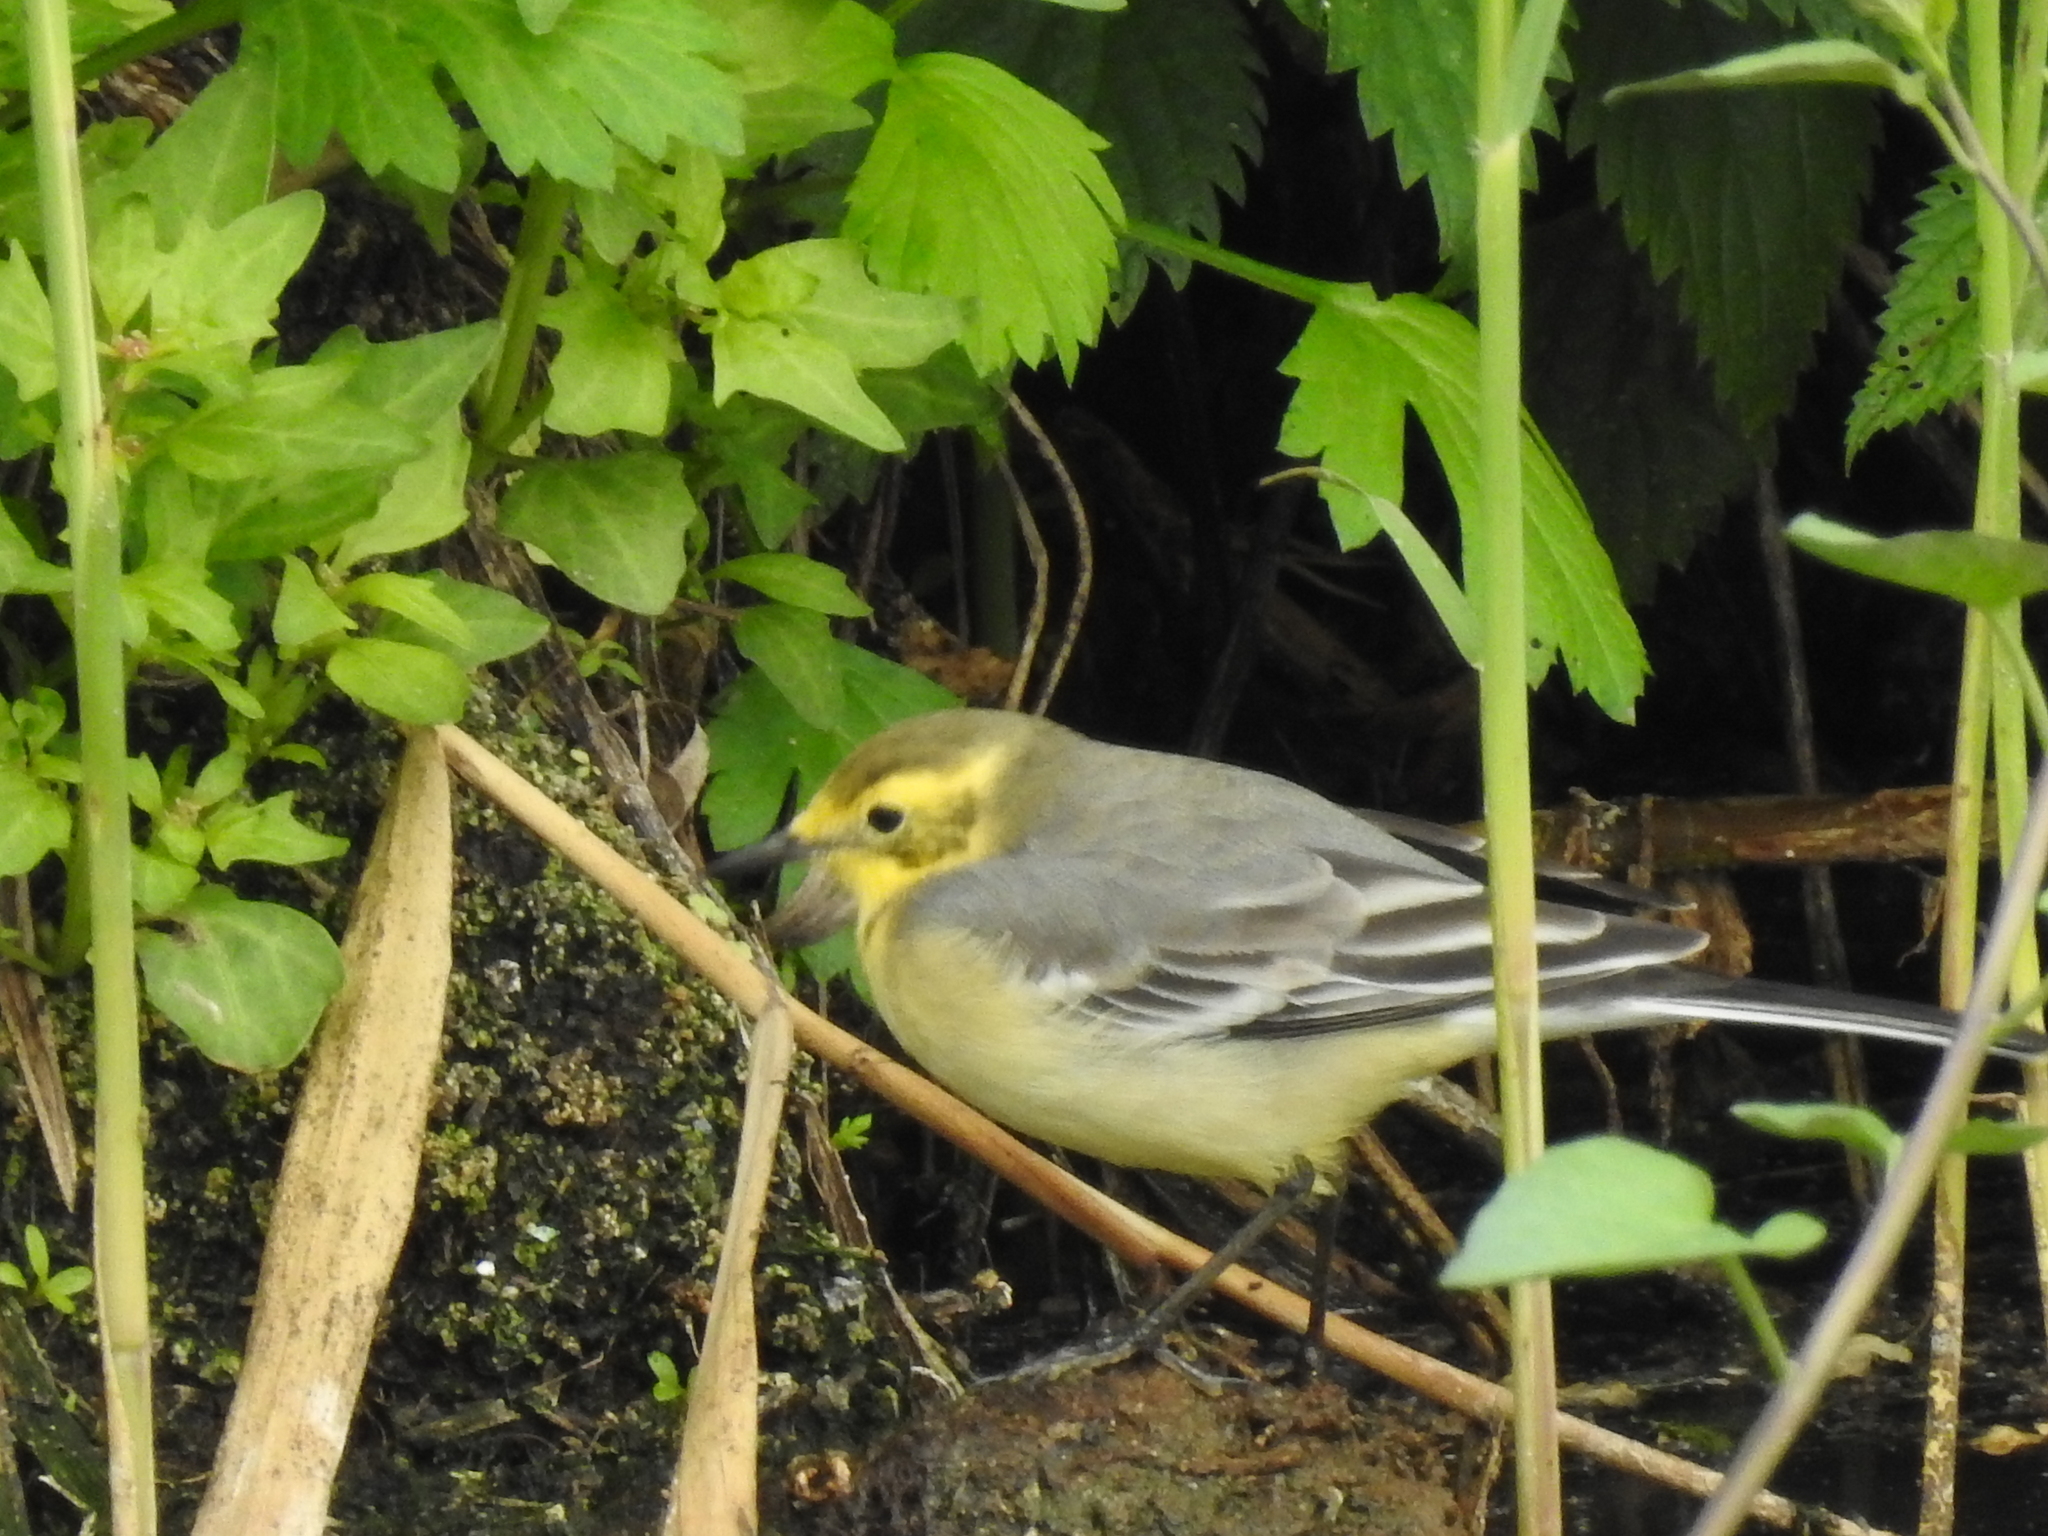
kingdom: Animalia
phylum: Chordata
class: Aves
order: Passeriformes
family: Motacillidae
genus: Motacilla
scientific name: Motacilla citreola
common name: Citrine wagtail
